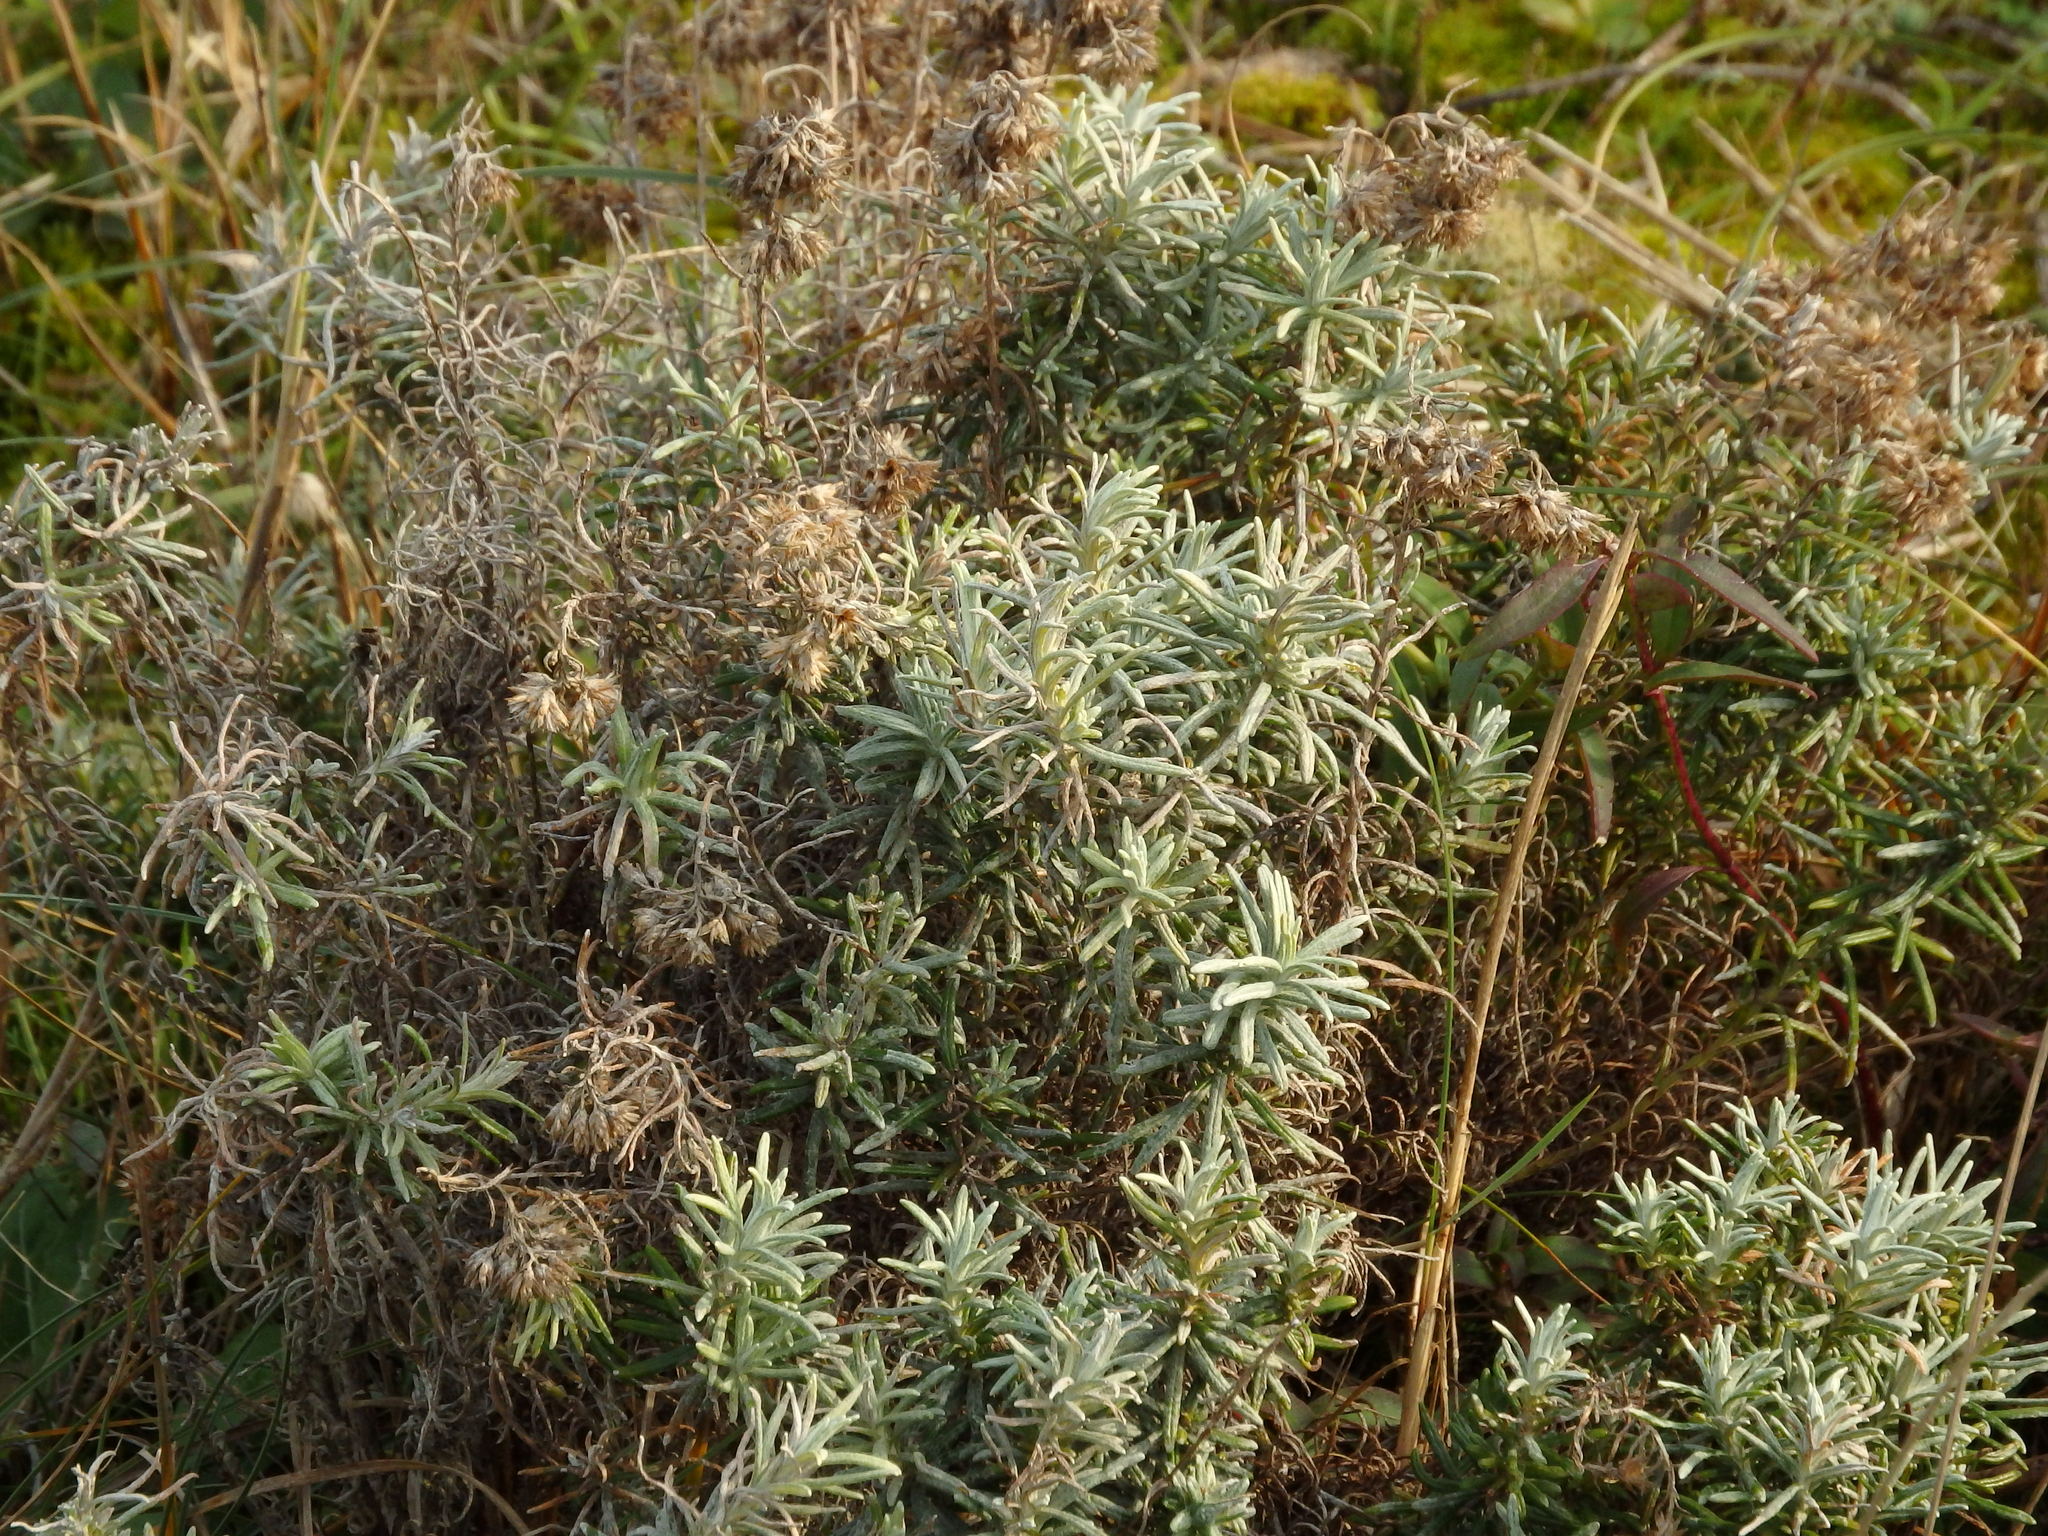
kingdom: Plantae
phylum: Tracheophyta
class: Magnoliopsida
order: Asterales
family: Asteraceae
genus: Helichrysum
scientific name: Helichrysum serotinum
